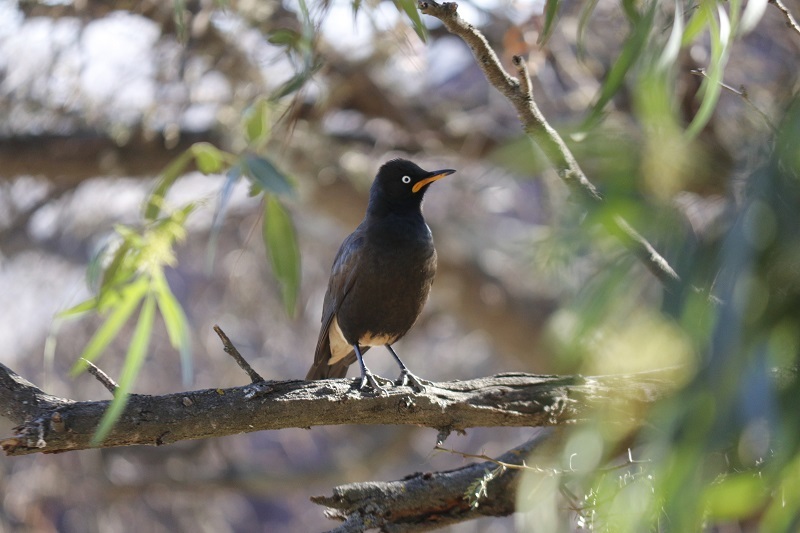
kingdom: Animalia
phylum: Chordata
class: Aves
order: Passeriformes
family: Sturnidae
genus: Lamprotornis
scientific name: Lamprotornis bicolor
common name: Pied starling
